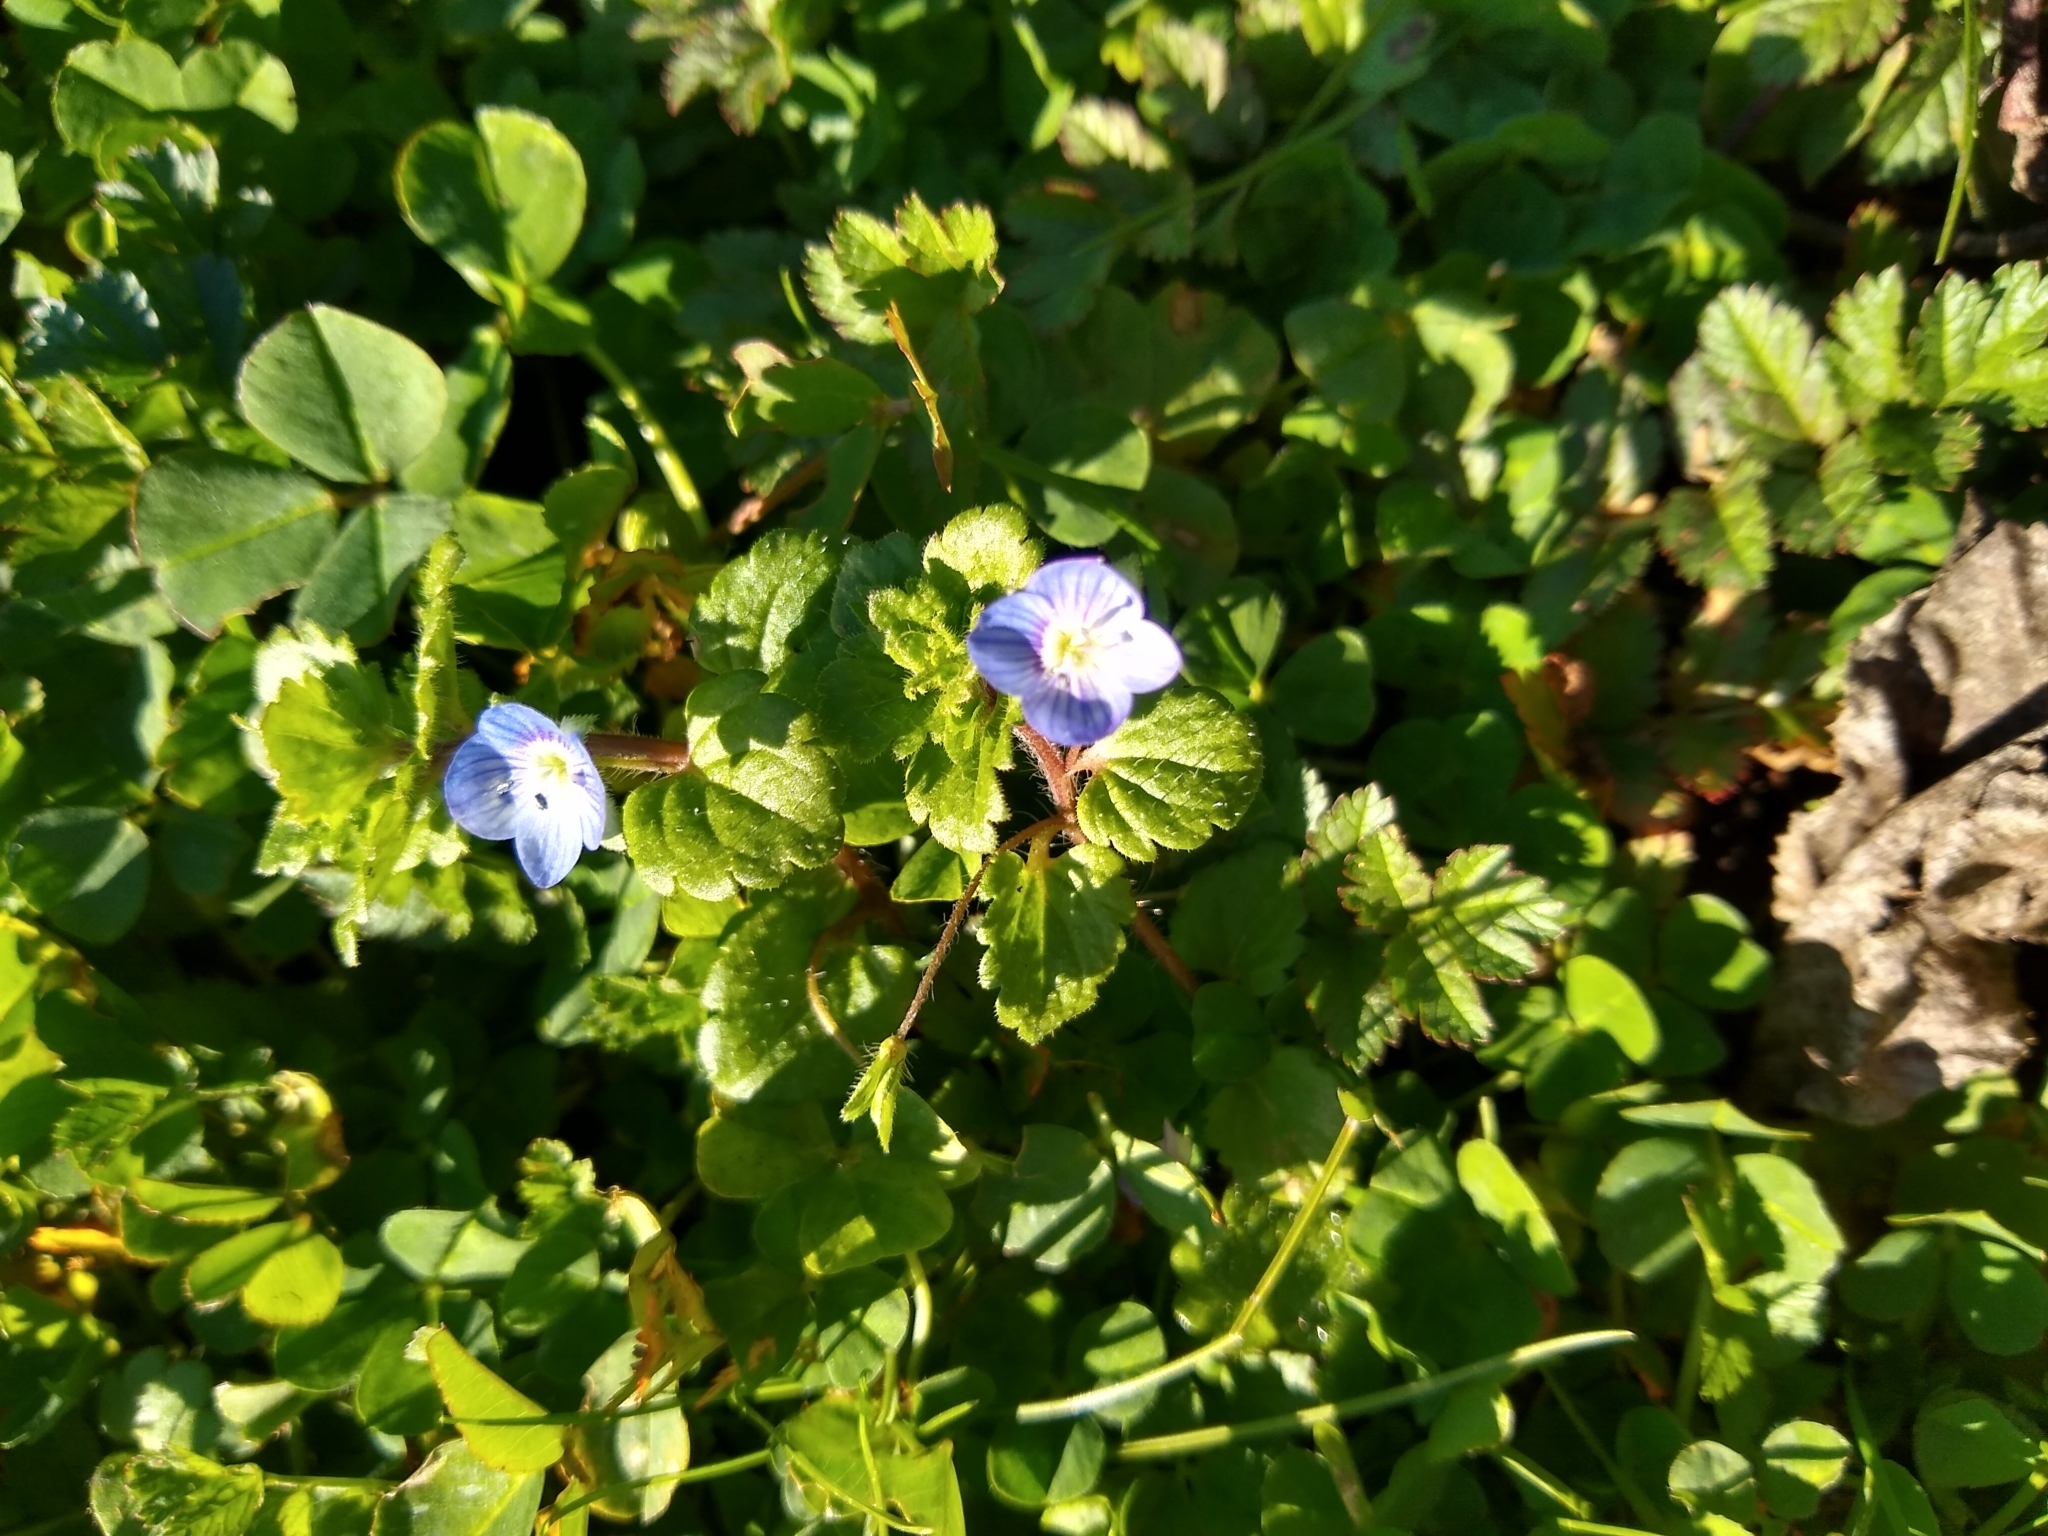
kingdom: Plantae
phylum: Tracheophyta
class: Magnoliopsida
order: Lamiales
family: Plantaginaceae
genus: Veronica
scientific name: Veronica persica
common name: Common field-speedwell
